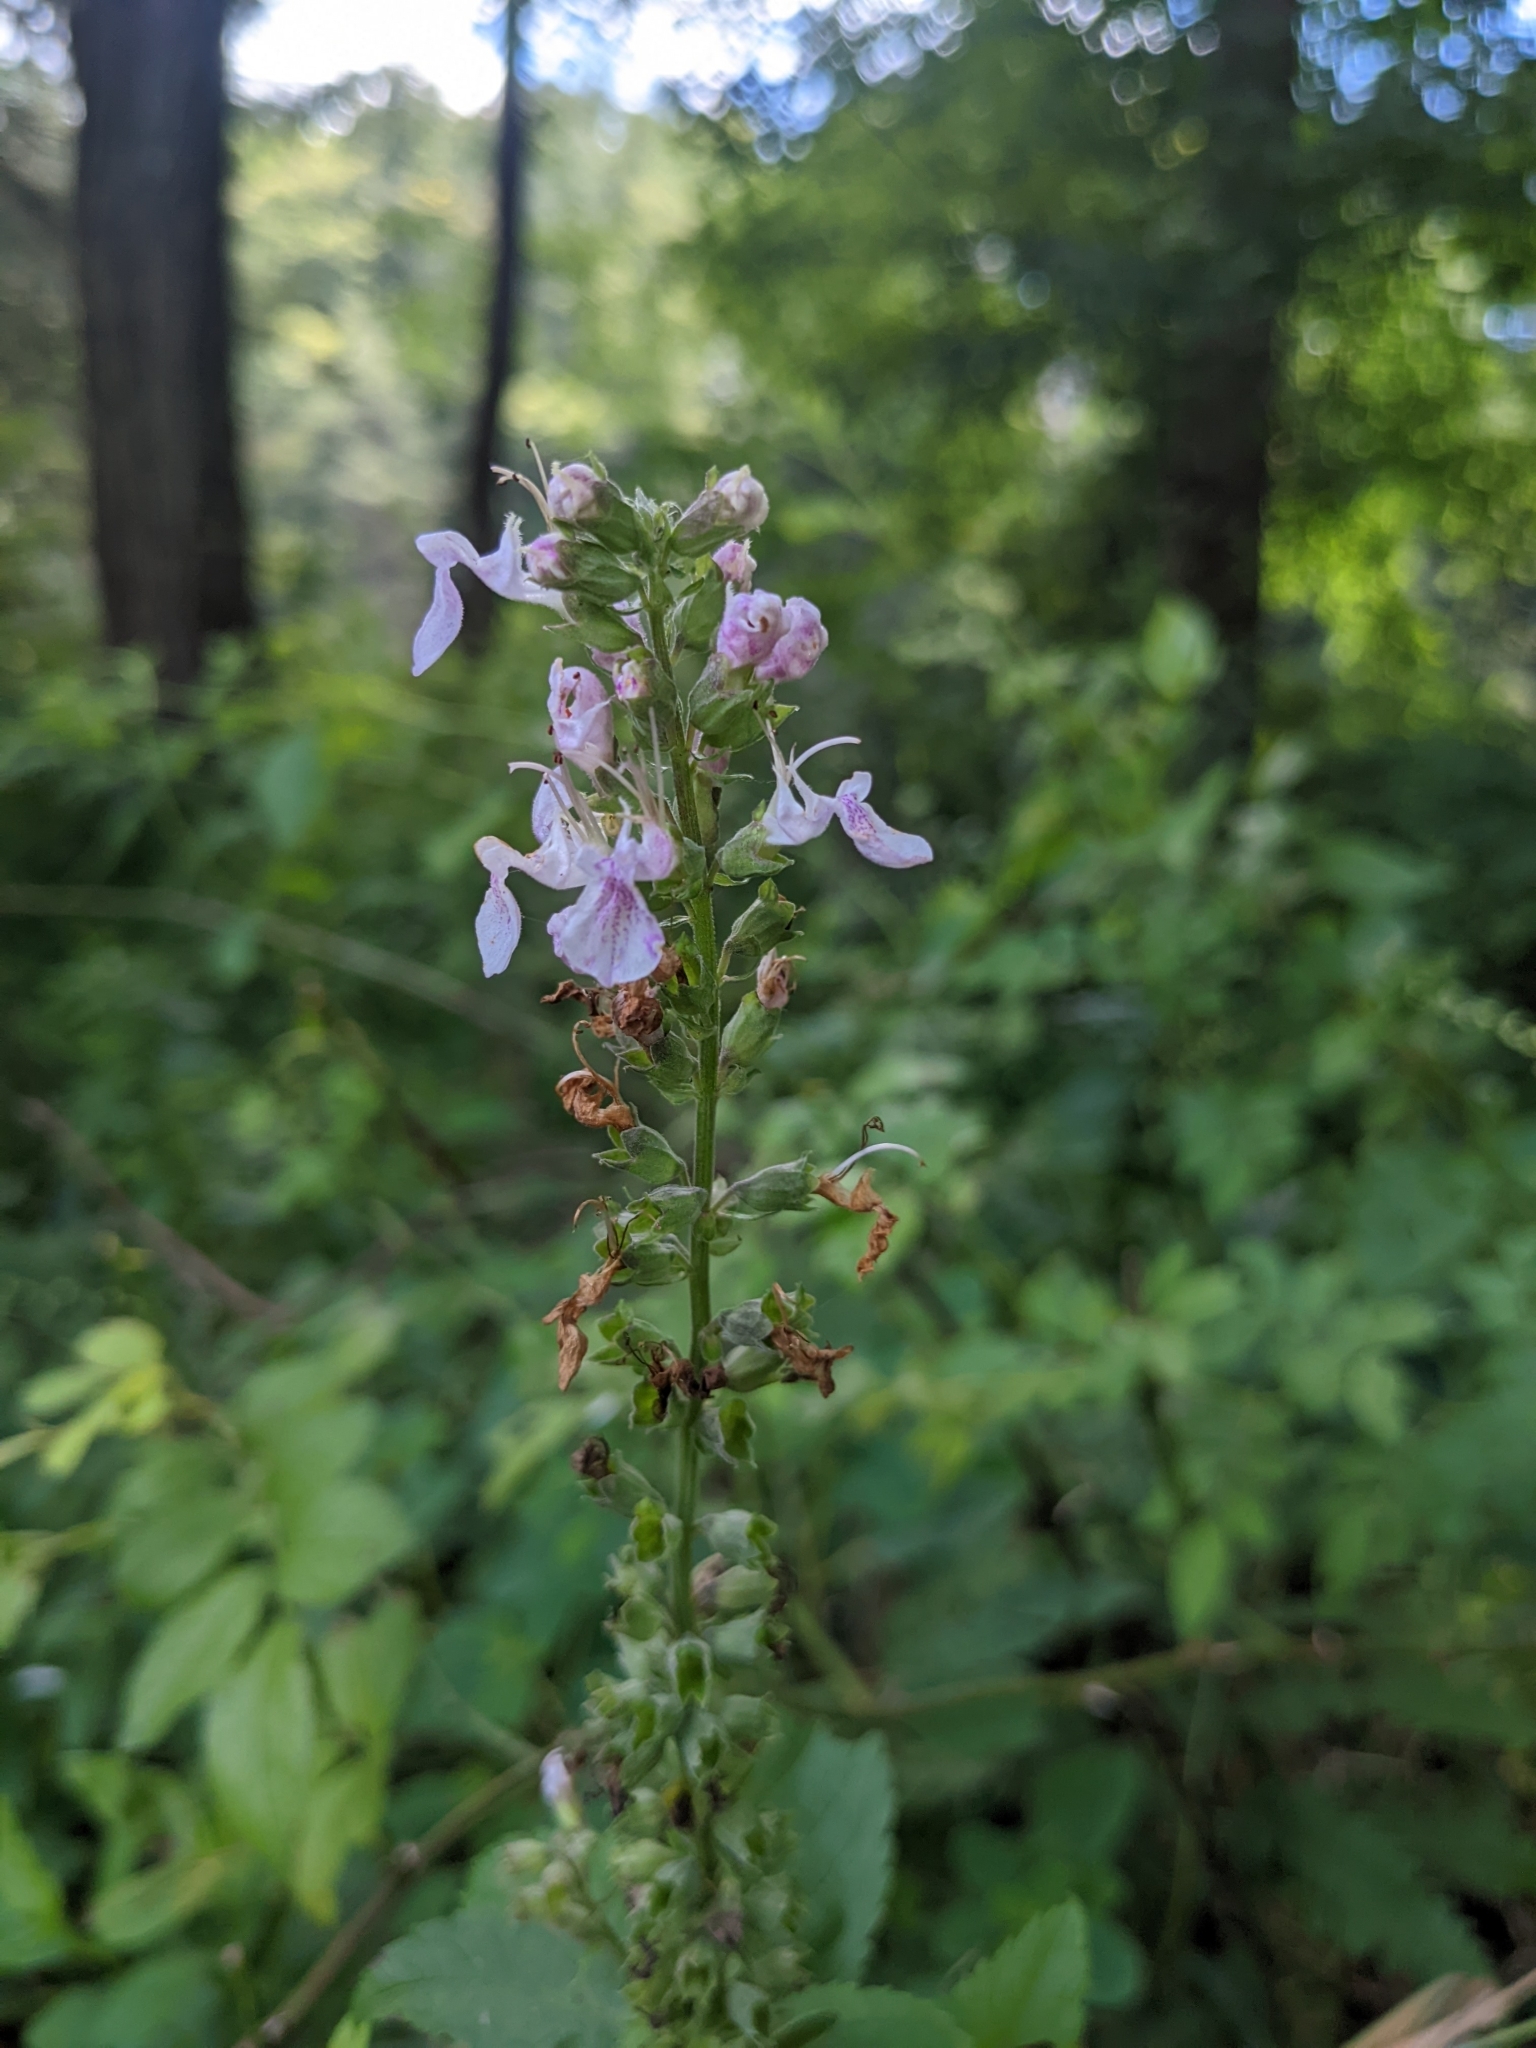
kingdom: Plantae
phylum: Tracheophyta
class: Magnoliopsida
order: Lamiales
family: Lamiaceae
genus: Teucrium
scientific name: Teucrium canadense
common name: American germander
